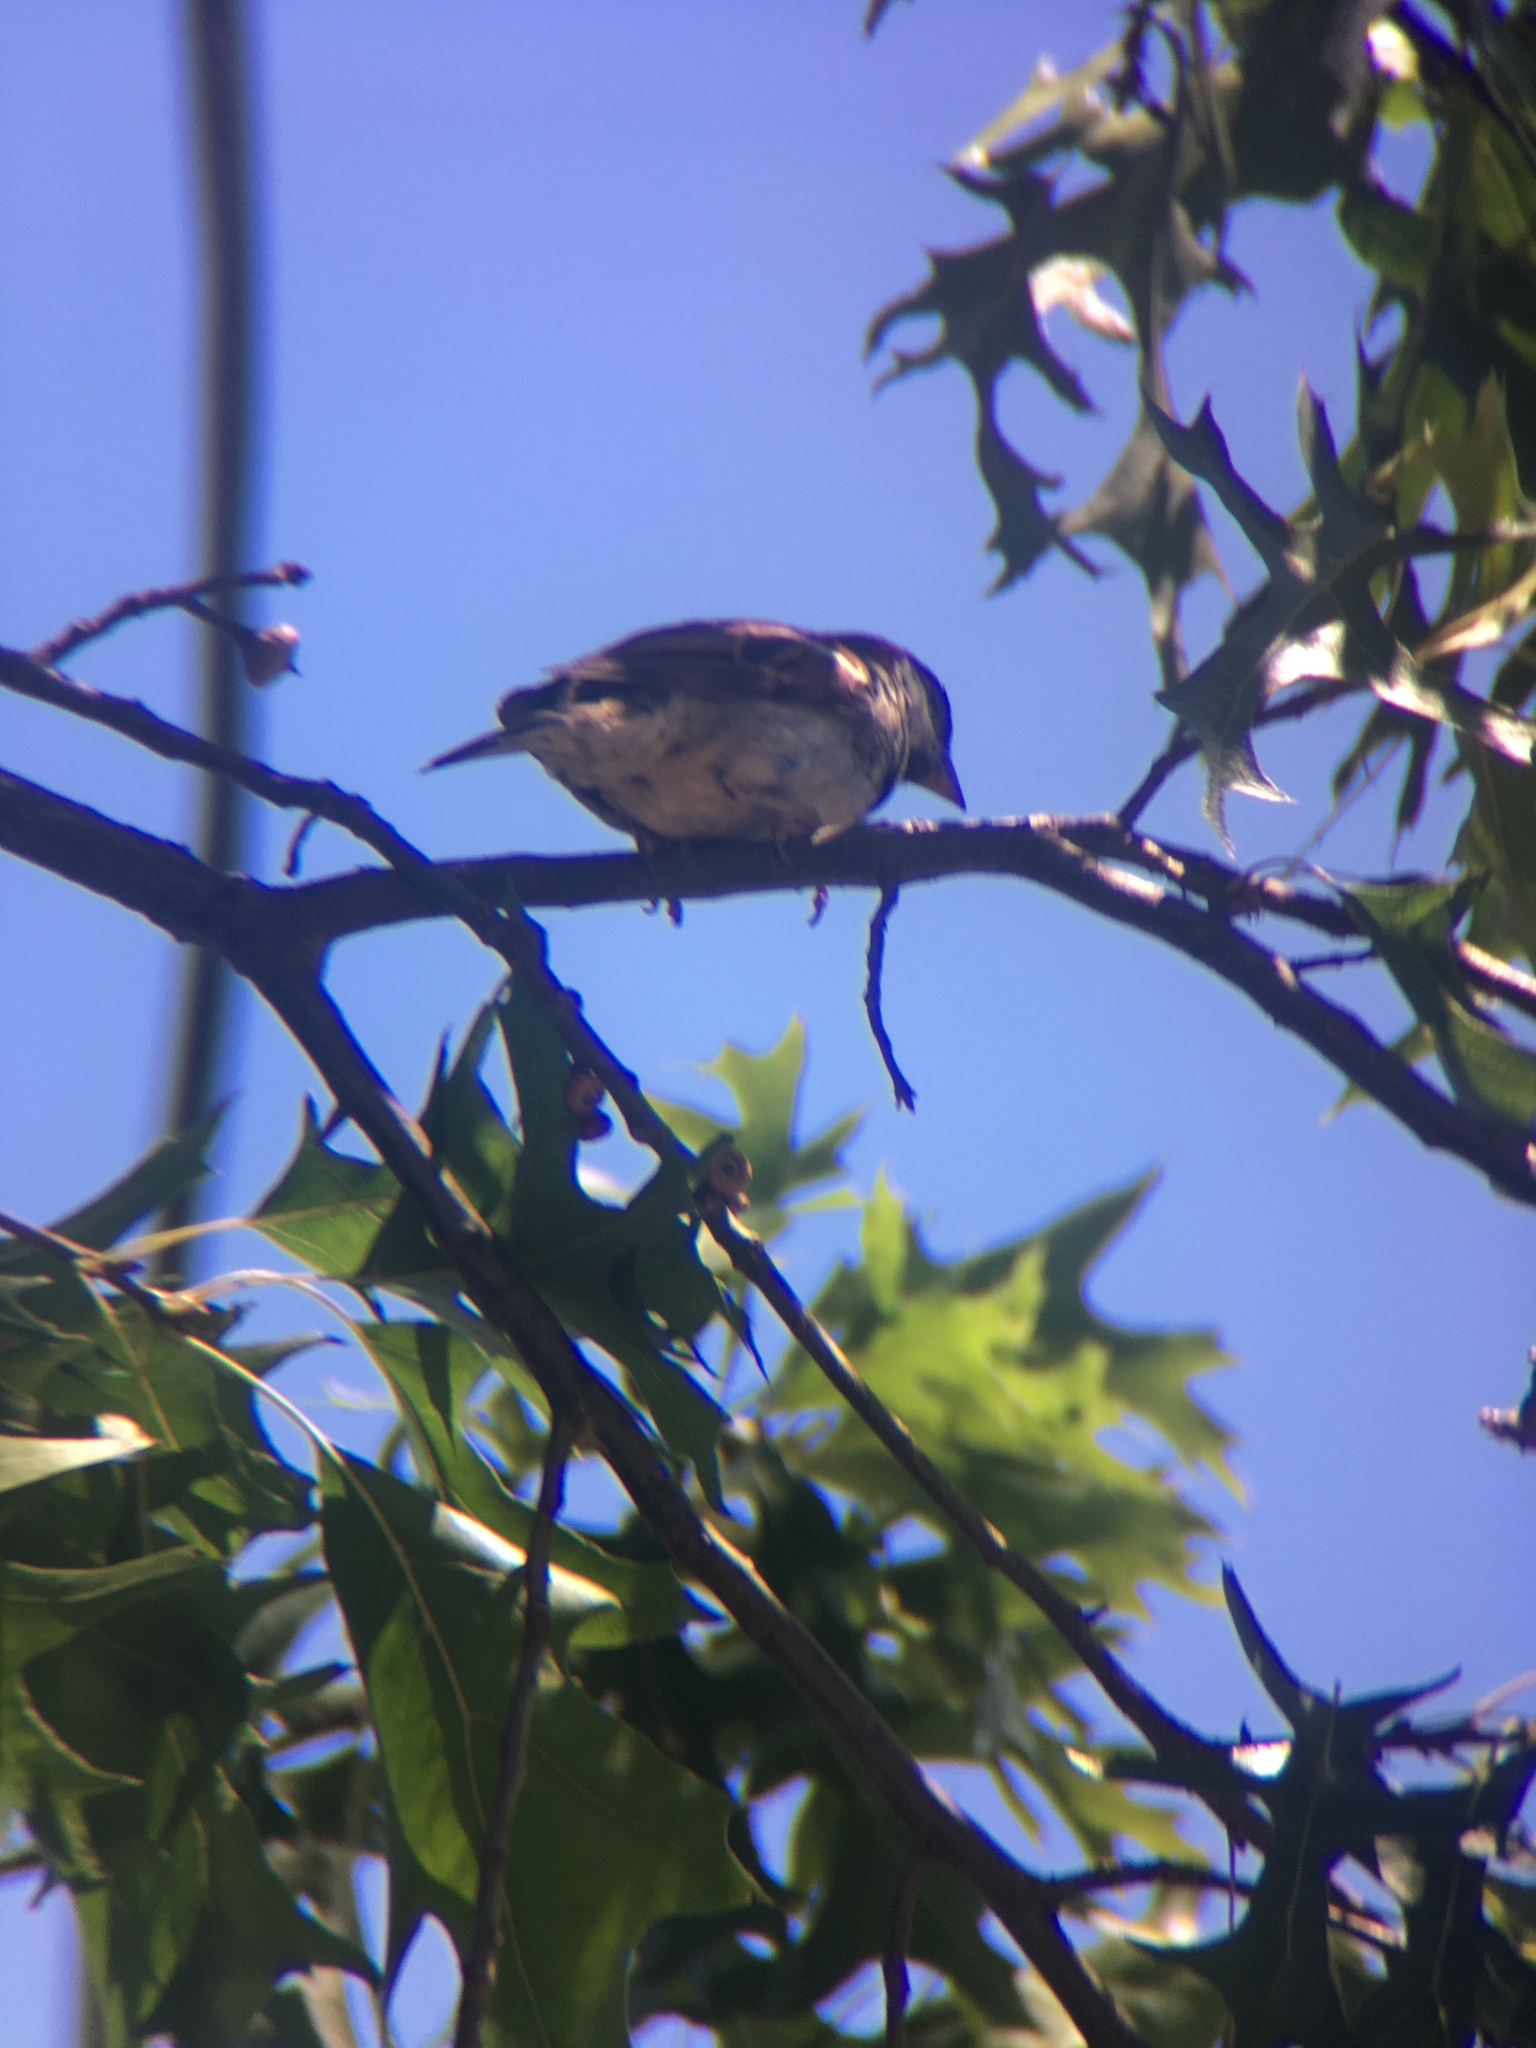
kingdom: Animalia
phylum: Chordata
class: Aves
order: Passeriformes
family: Passeridae
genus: Passer
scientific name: Passer domesticus
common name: House sparrow
